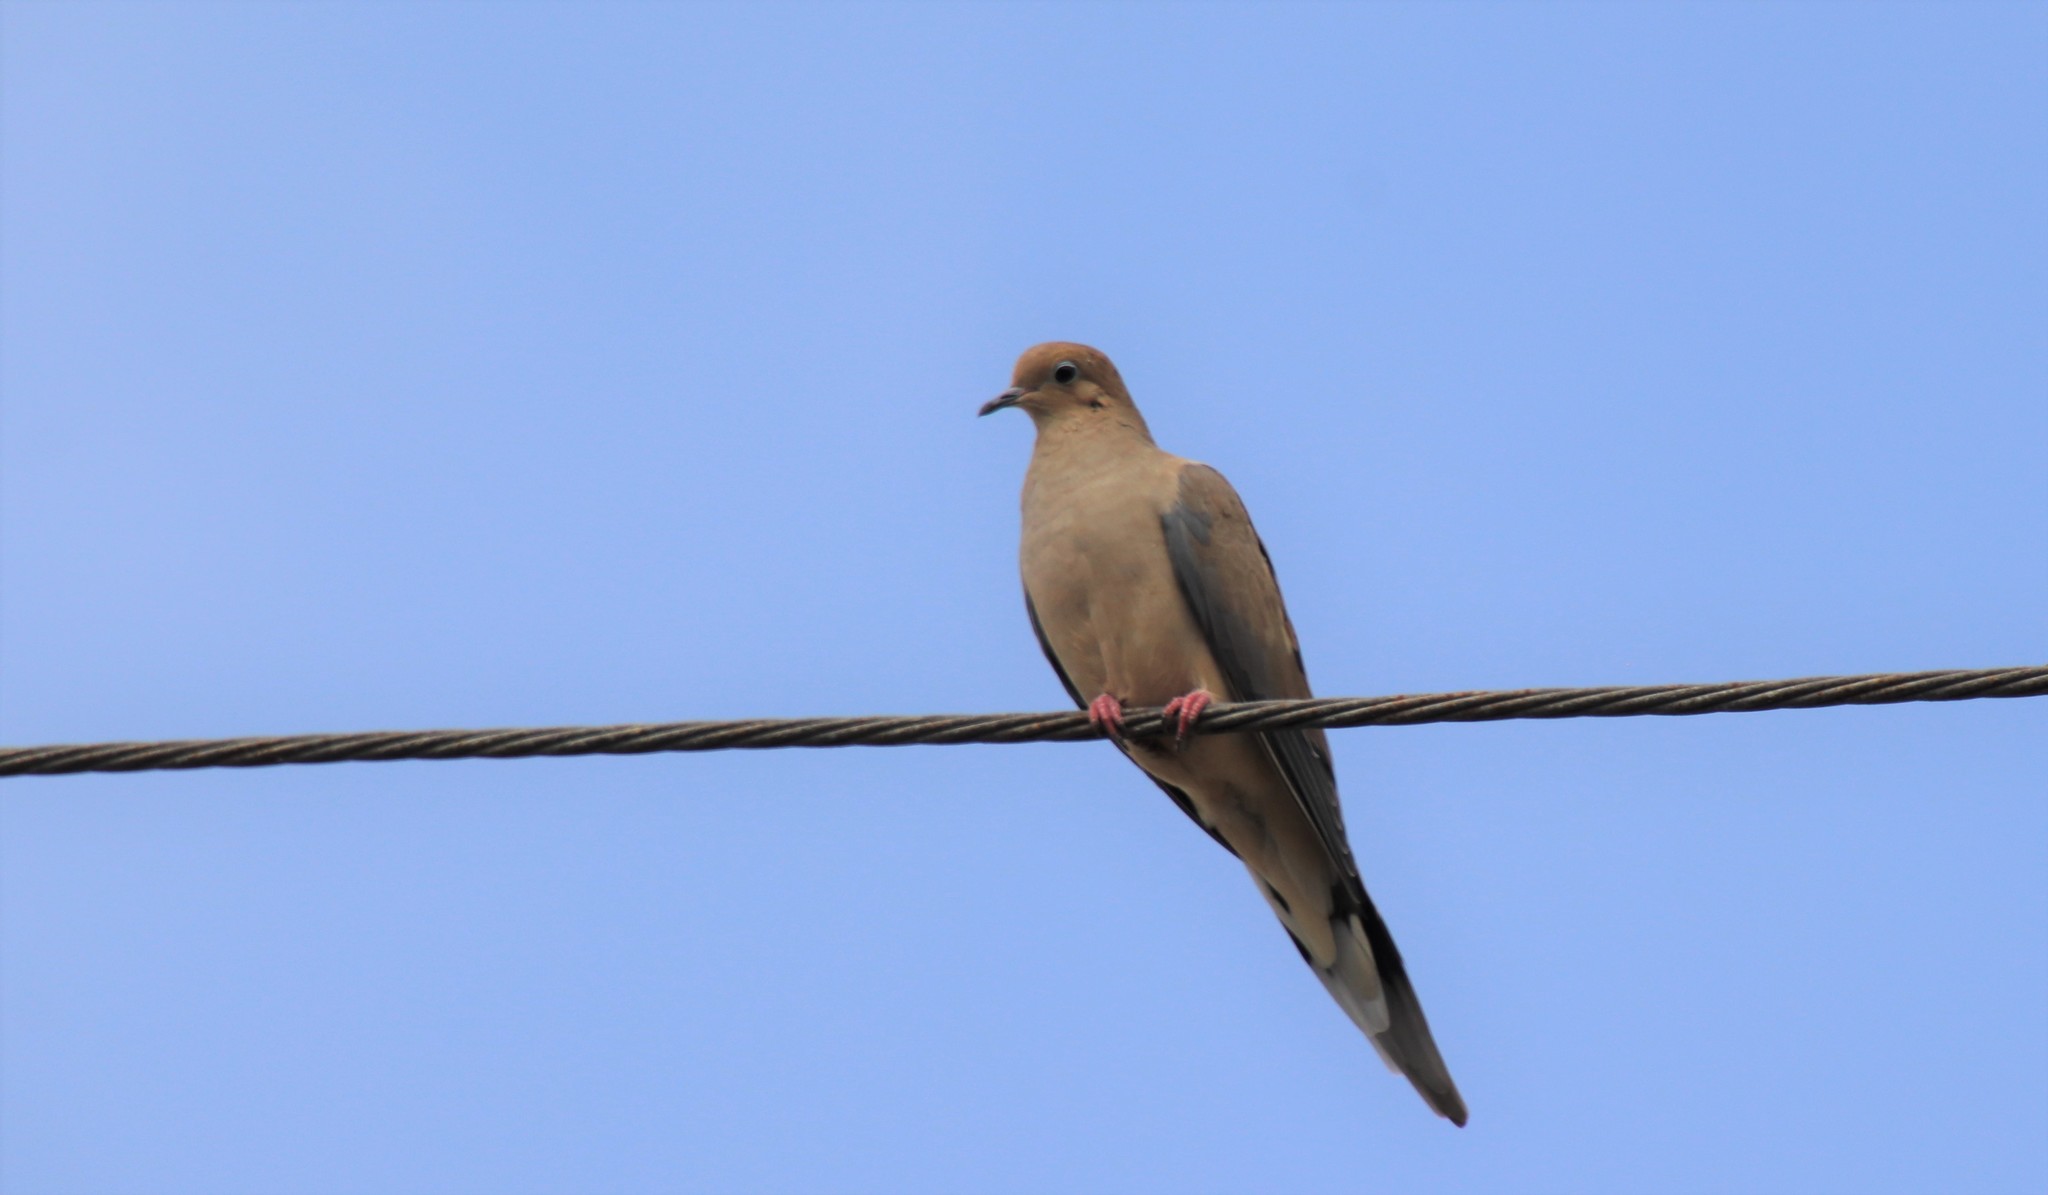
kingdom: Animalia
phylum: Chordata
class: Aves
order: Columbiformes
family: Columbidae
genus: Zenaida
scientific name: Zenaida macroura
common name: Mourning dove
